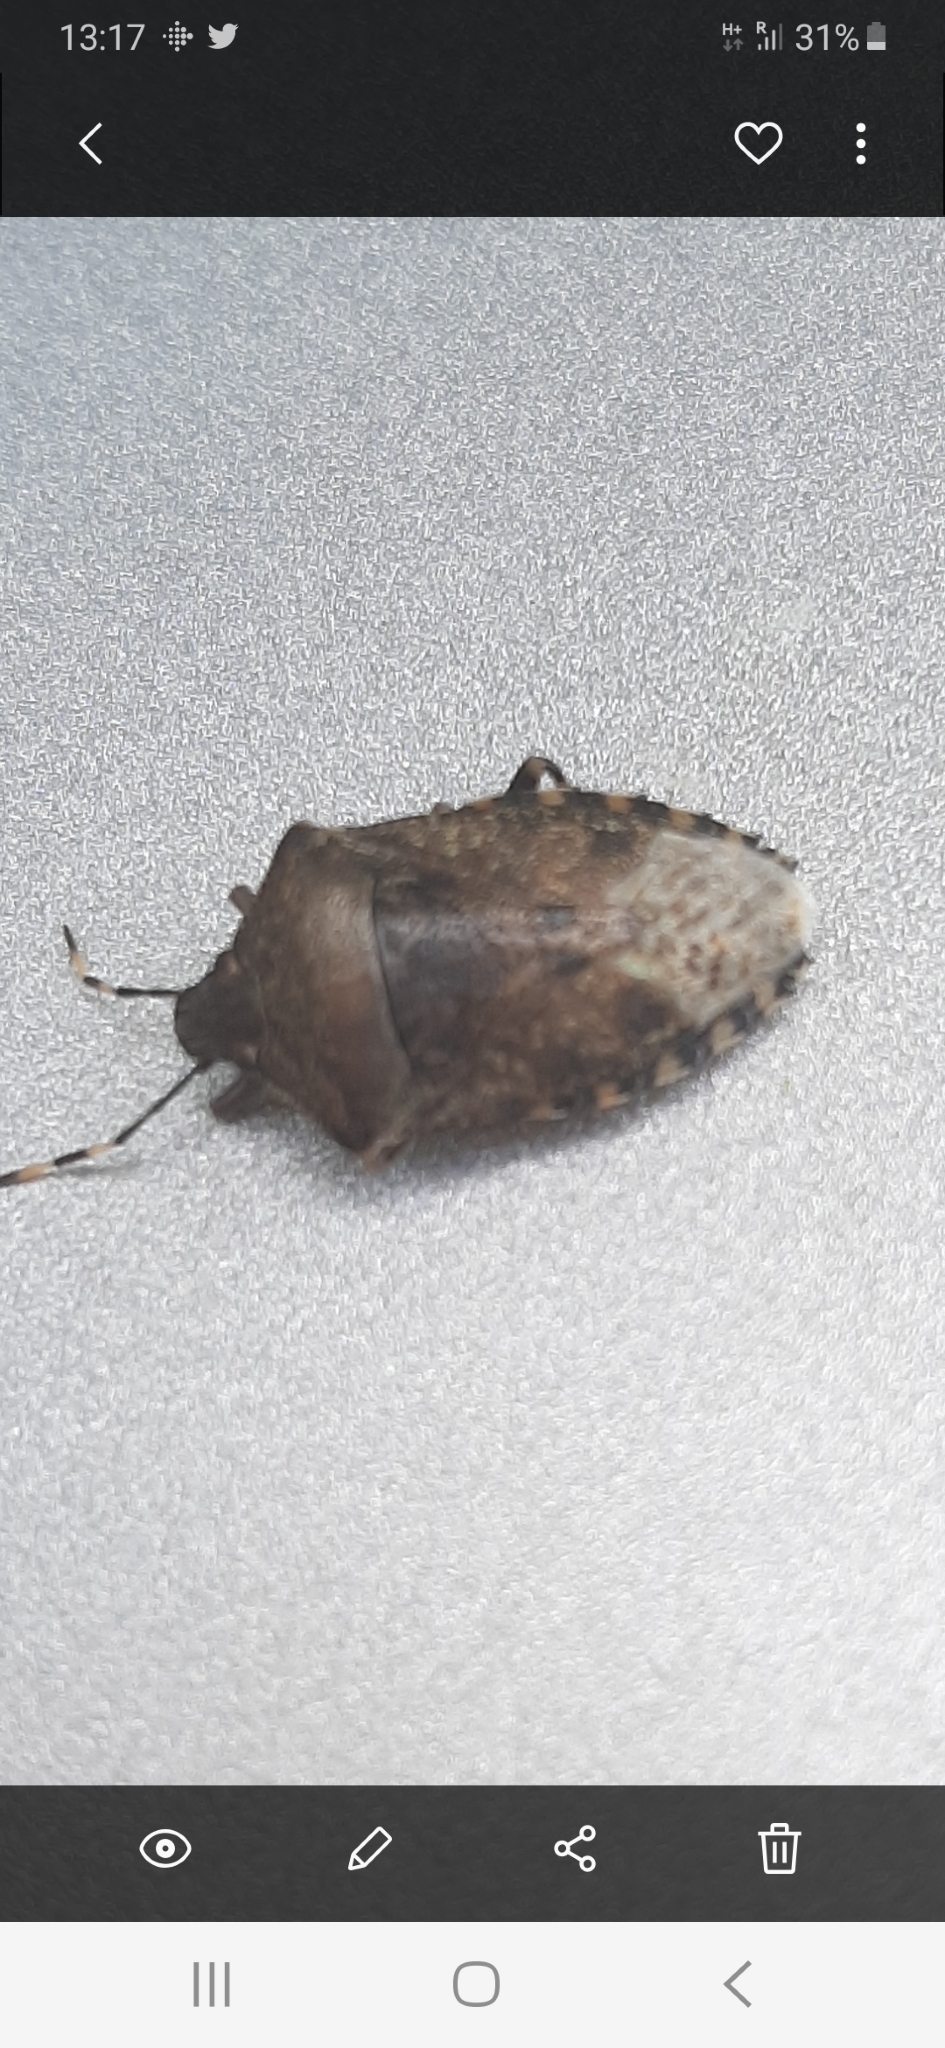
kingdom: Animalia
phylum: Arthropoda
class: Insecta
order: Hemiptera
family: Pentatomidae
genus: Rhaphigaster
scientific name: Rhaphigaster nebulosa
